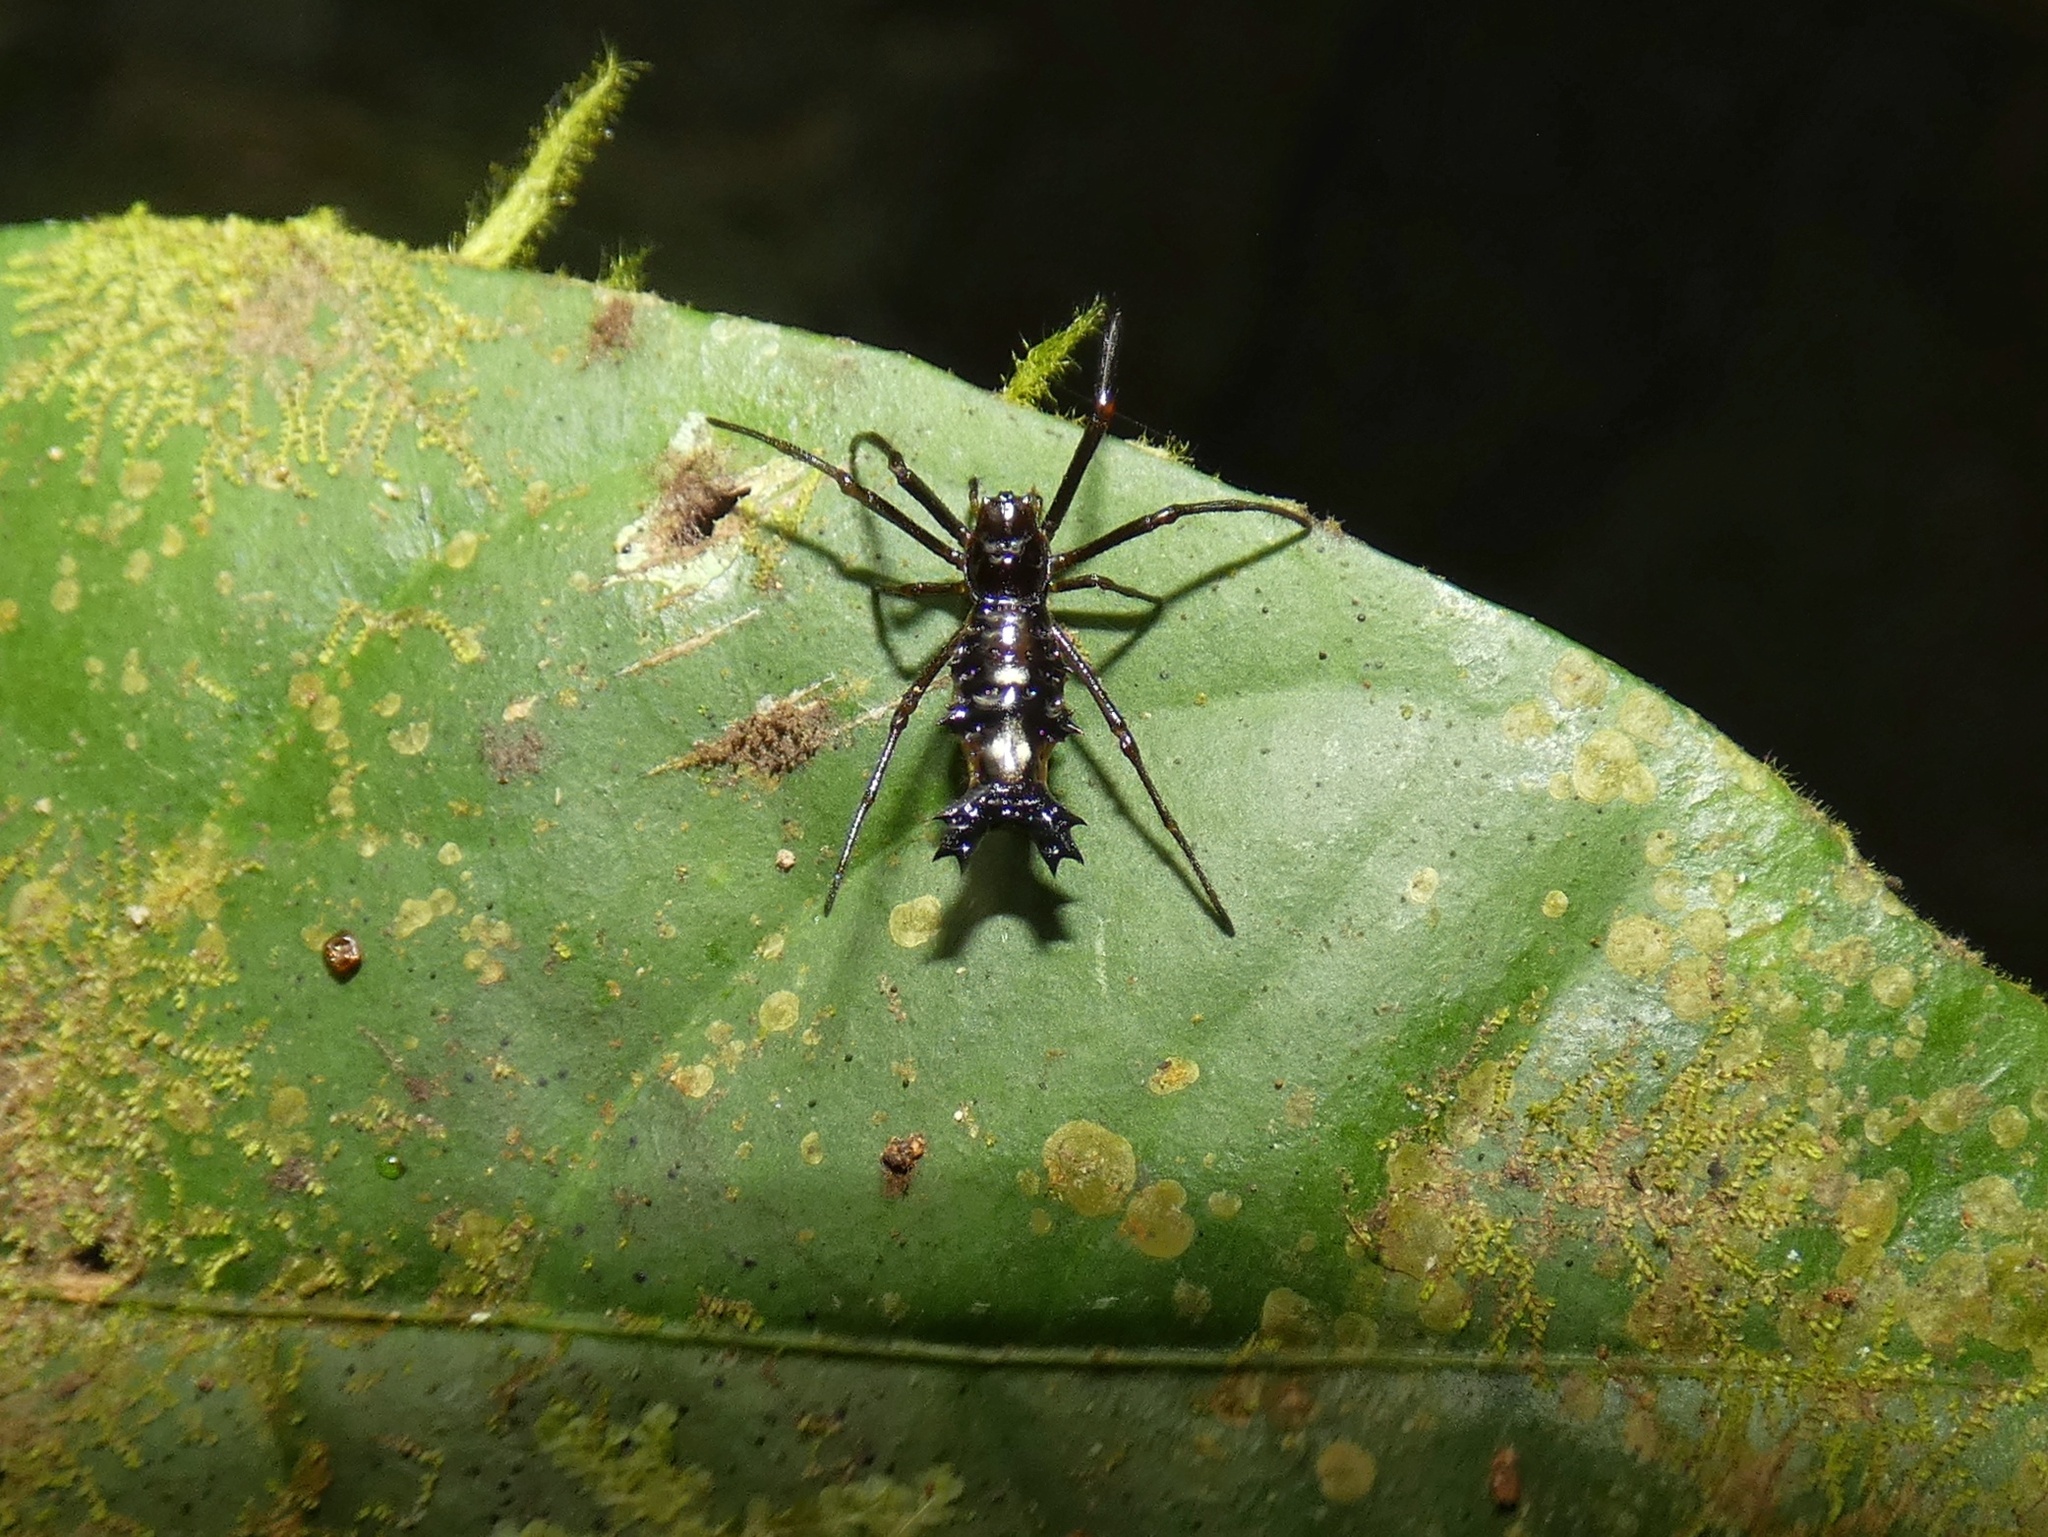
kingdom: Animalia
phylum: Arthropoda
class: Arachnida
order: Araneae
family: Araneidae
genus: Micrathena
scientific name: Micrathena lepidoptera
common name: Orb weavers
